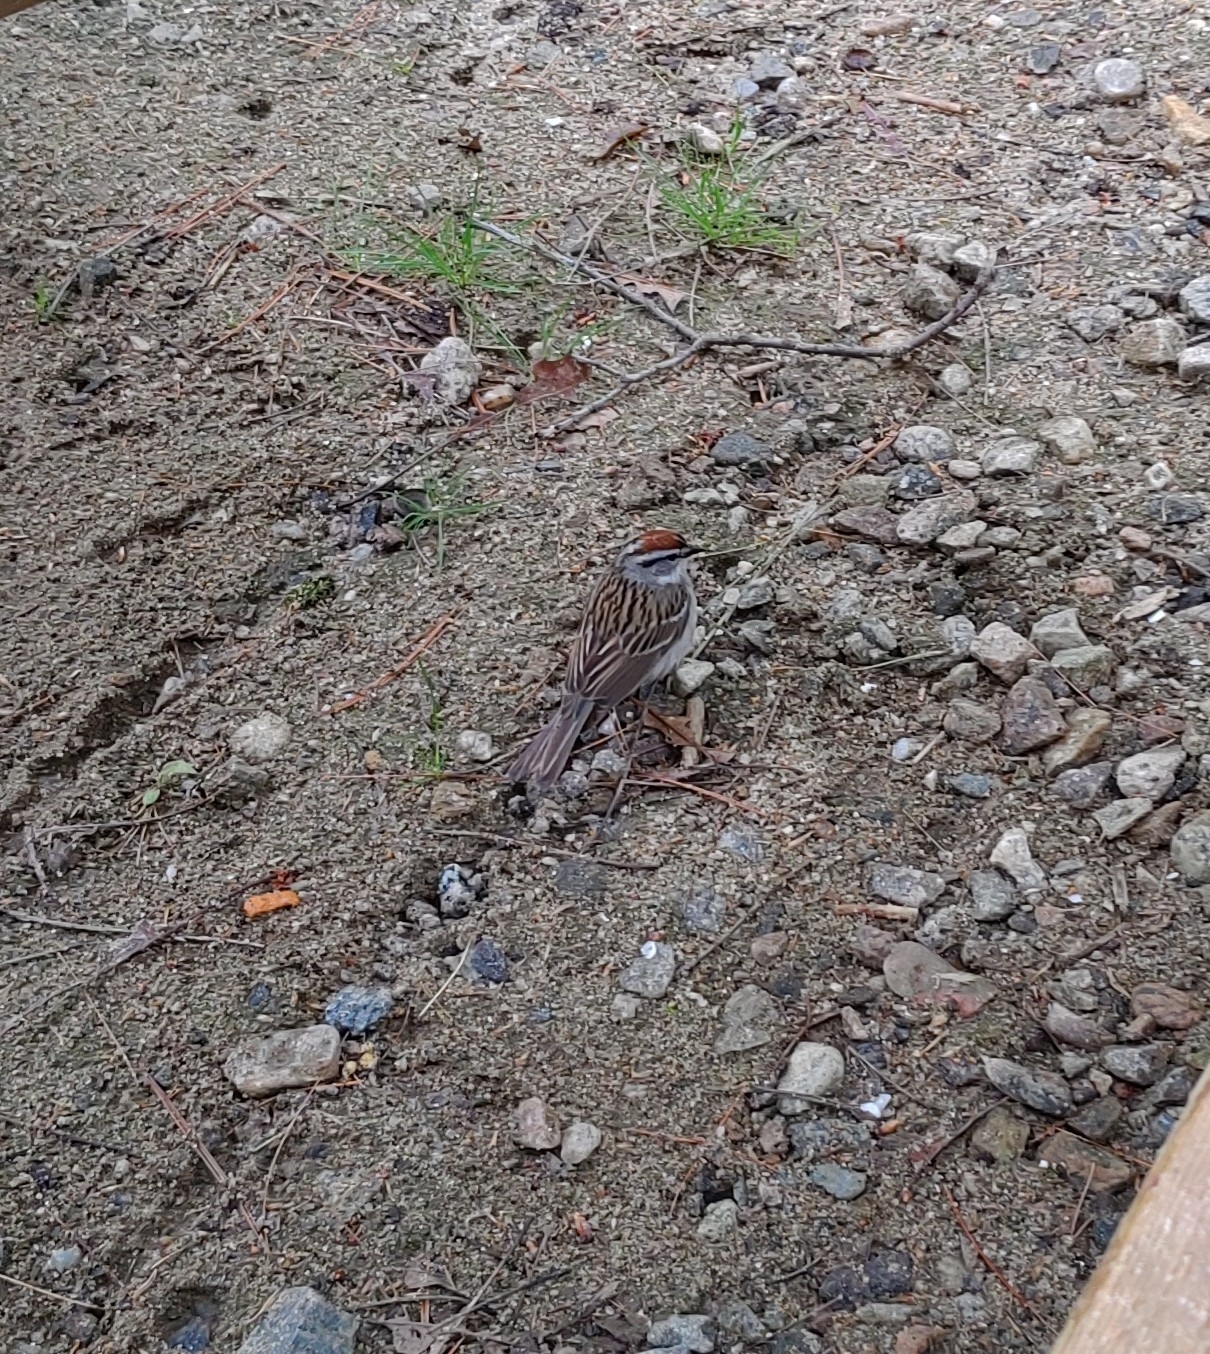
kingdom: Animalia
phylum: Chordata
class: Aves
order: Passeriformes
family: Passerellidae
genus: Spizella
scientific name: Spizella passerina
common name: Chipping sparrow
